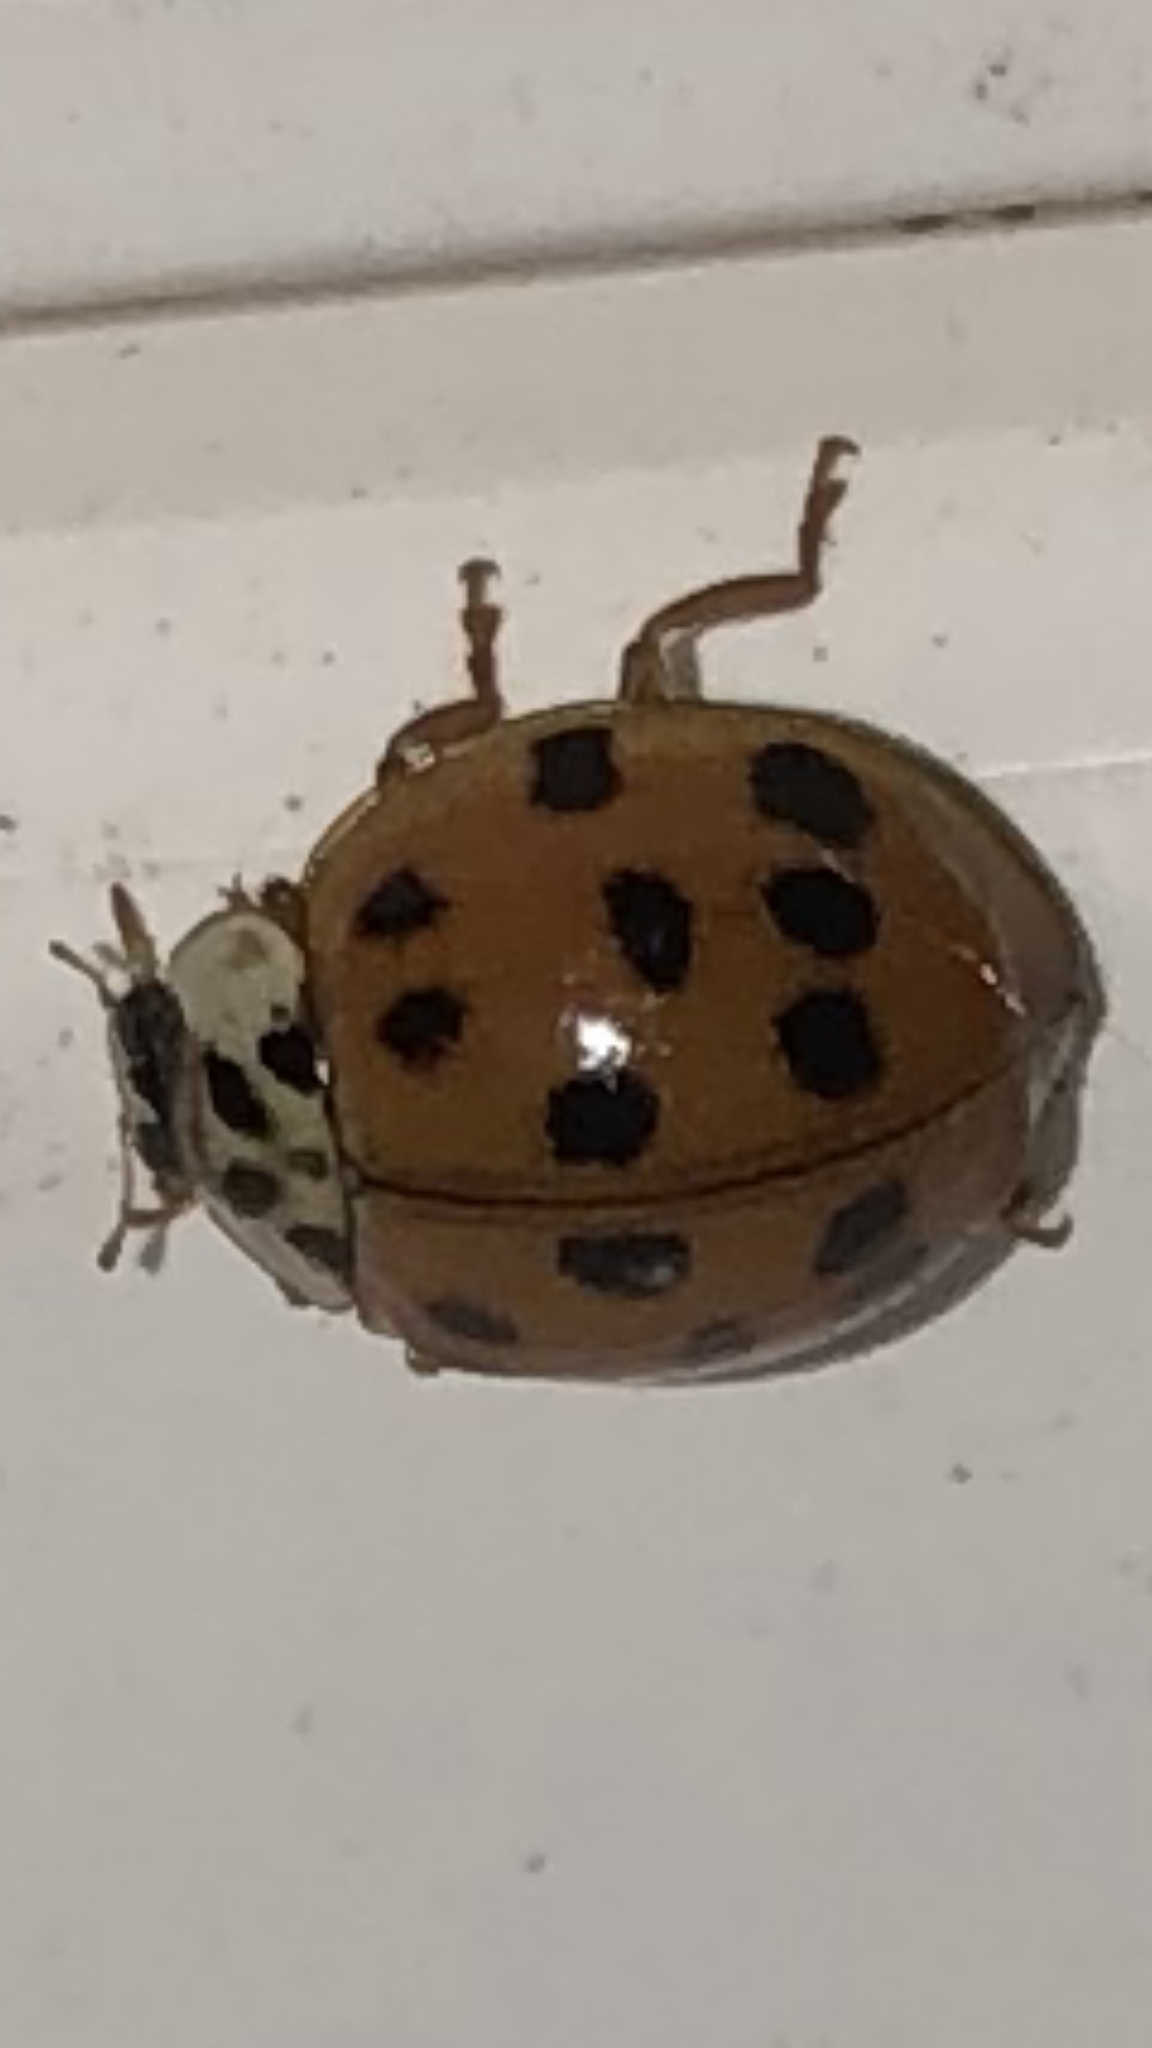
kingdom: Animalia
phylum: Arthropoda
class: Insecta
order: Coleoptera
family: Coccinellidae
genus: Harmonia
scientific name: Harmonia axyridis
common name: Harlequin ladybird
